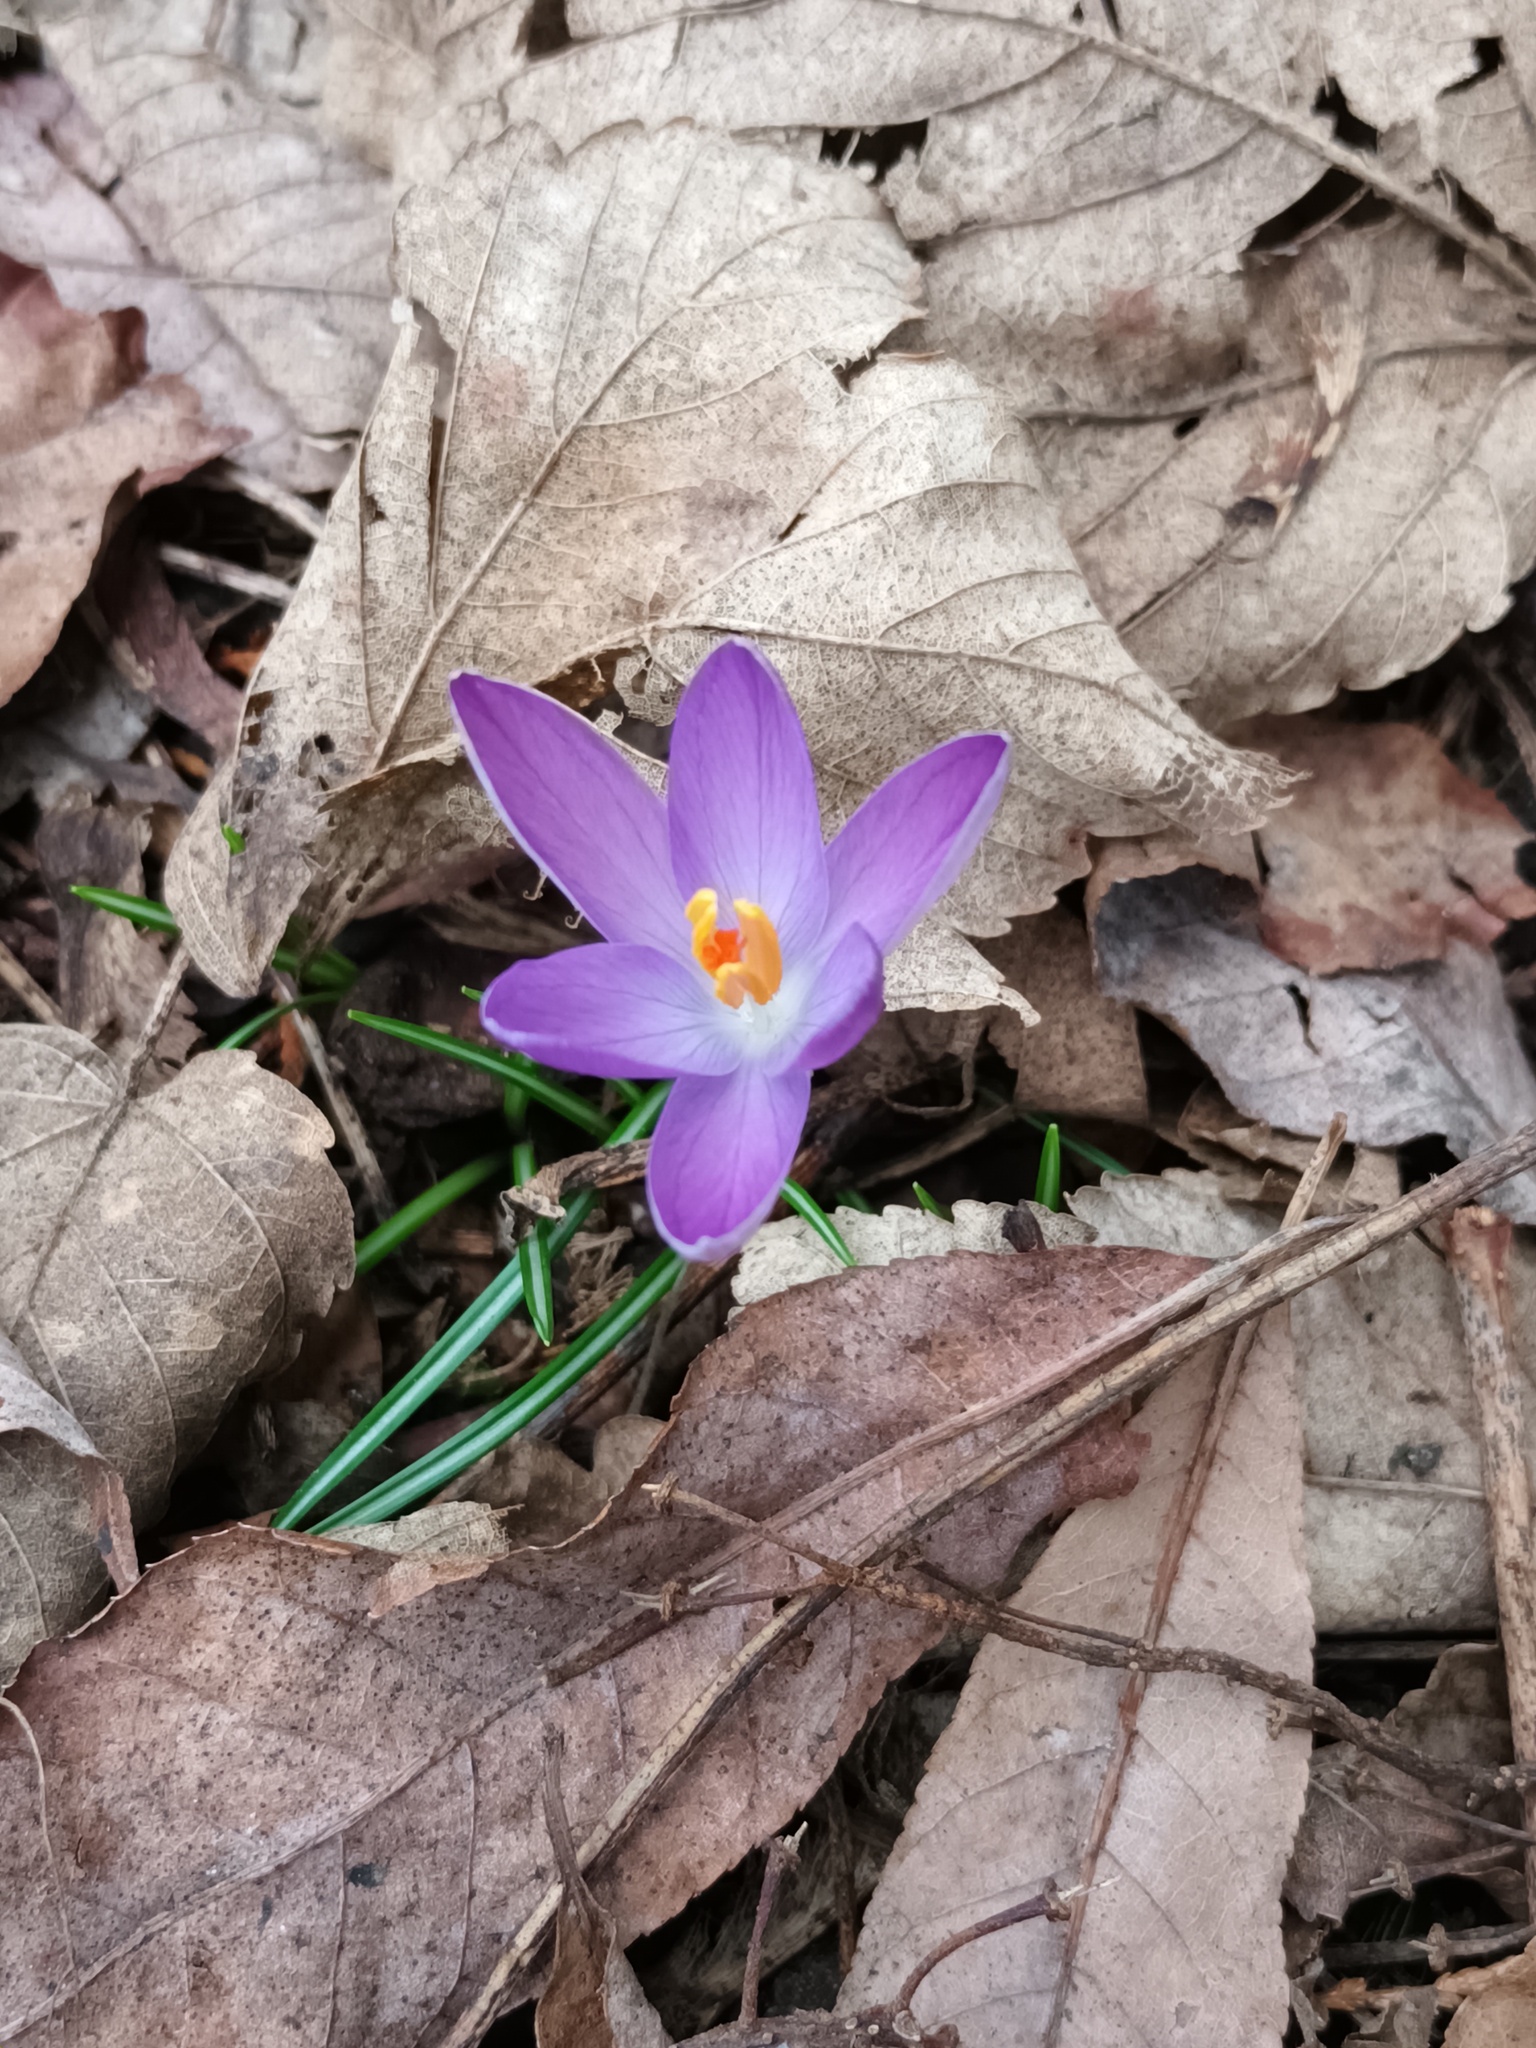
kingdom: Plantae
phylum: Tracheophyta
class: Liliopsida
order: Asparagales
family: Iridaceae
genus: Crocus
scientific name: Crocus tommasinianus
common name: Early crocus
